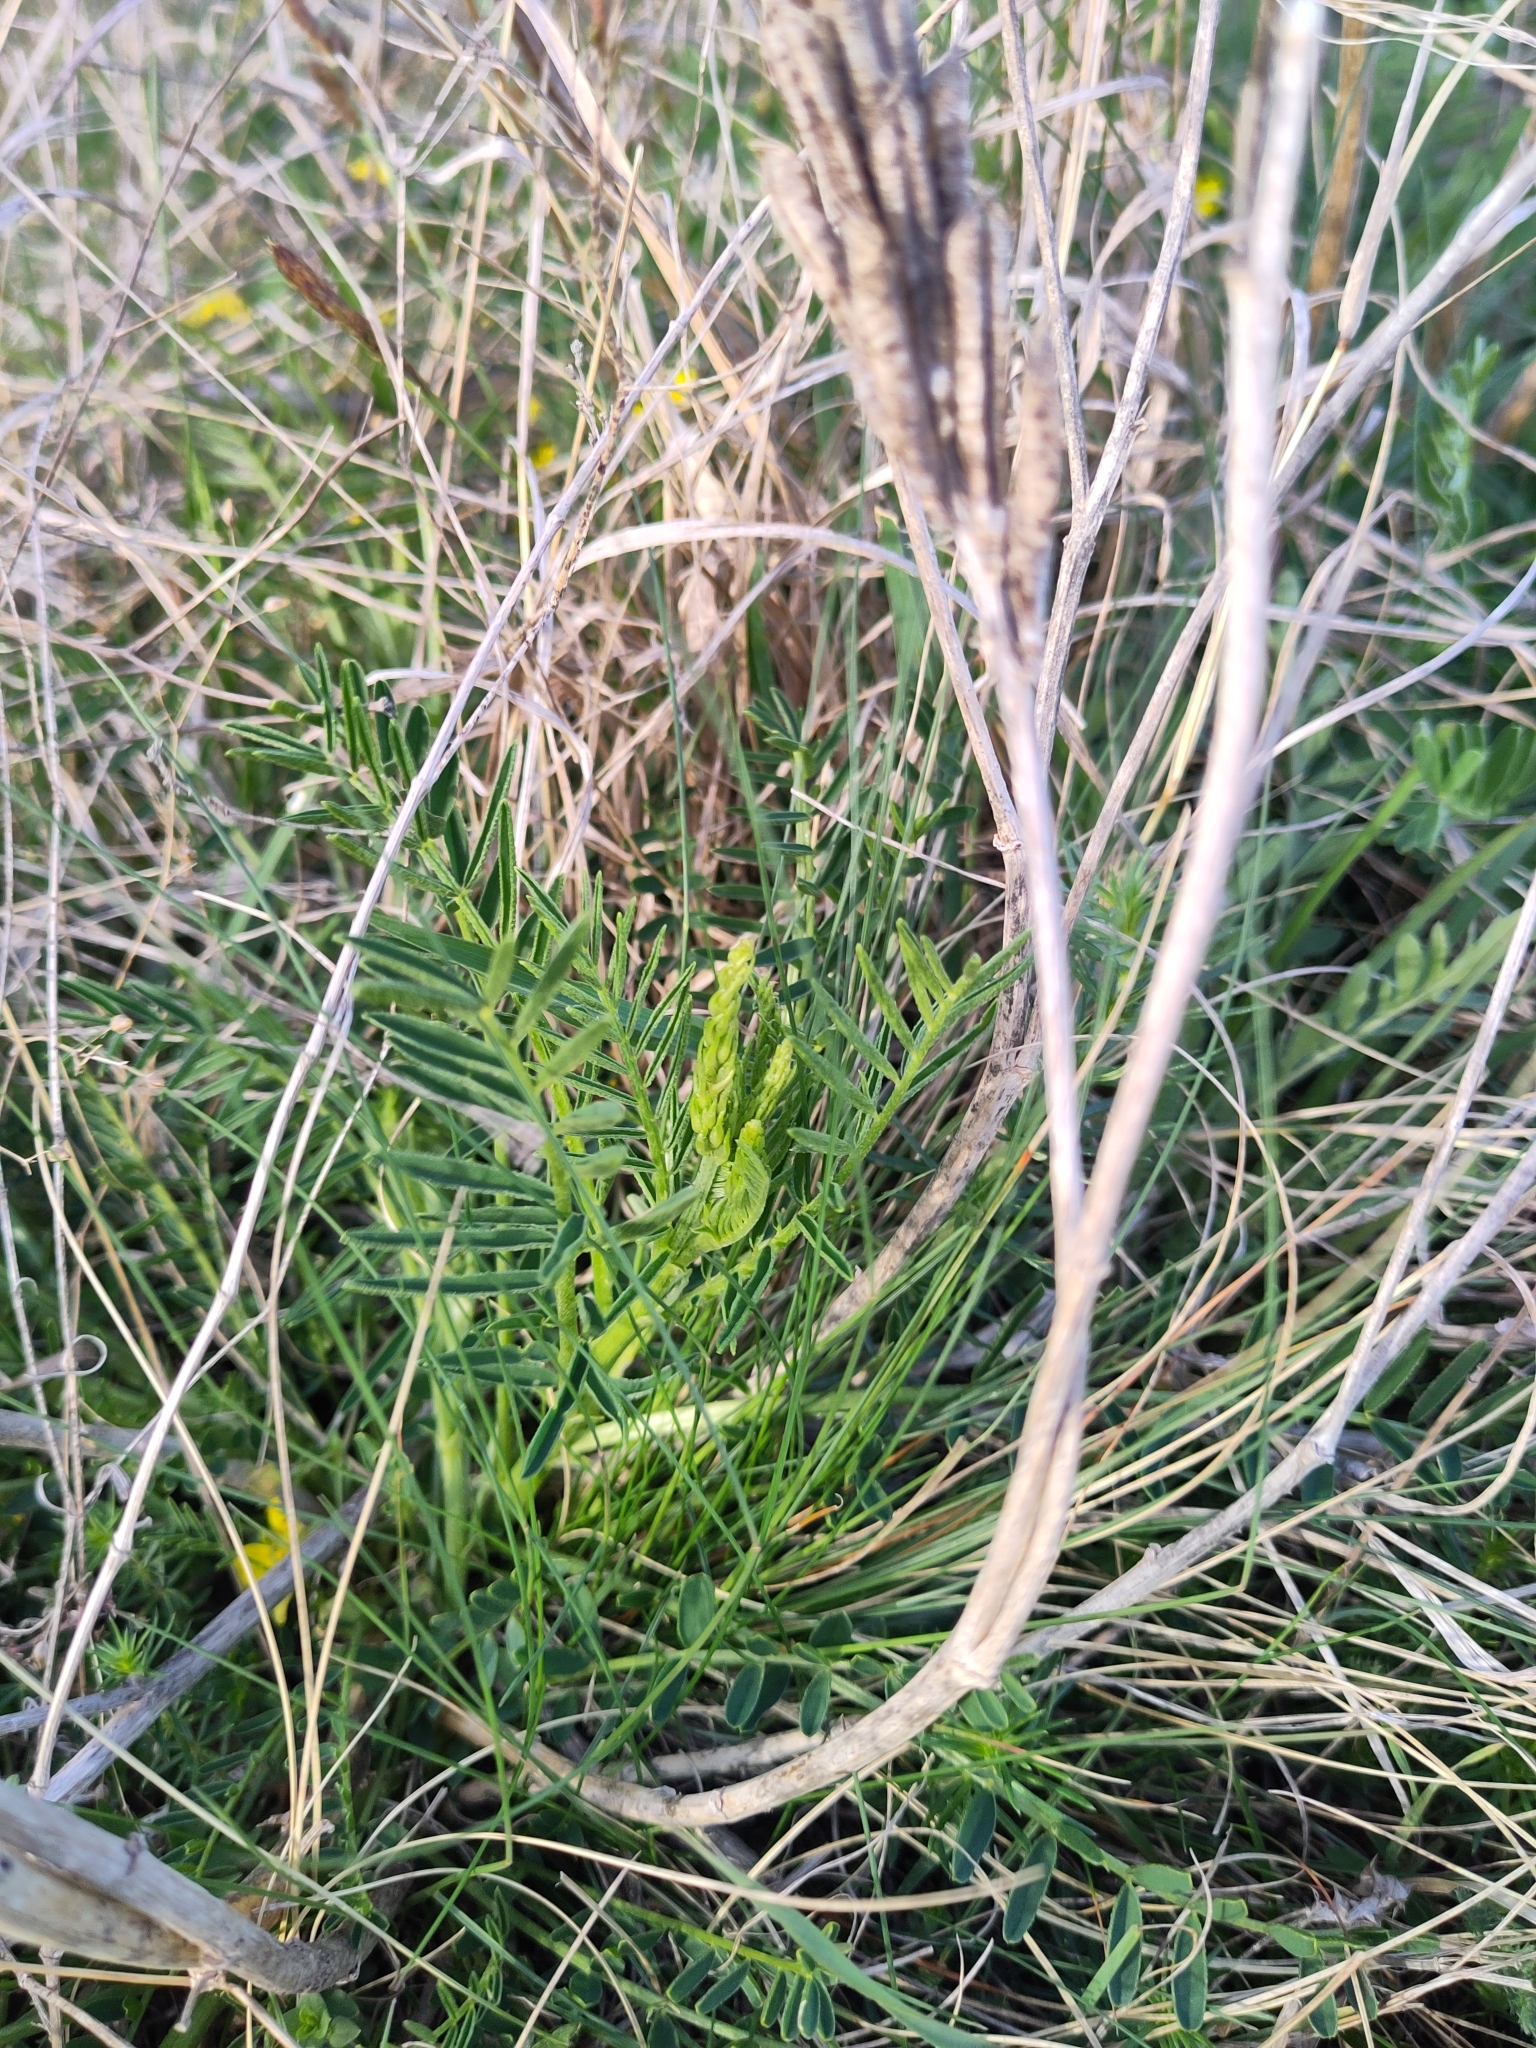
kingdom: Plantae
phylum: Tracheophyta
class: Magnoliopsida
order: Fabales
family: Fabaceae
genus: Astragalus
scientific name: Astragalus asper
